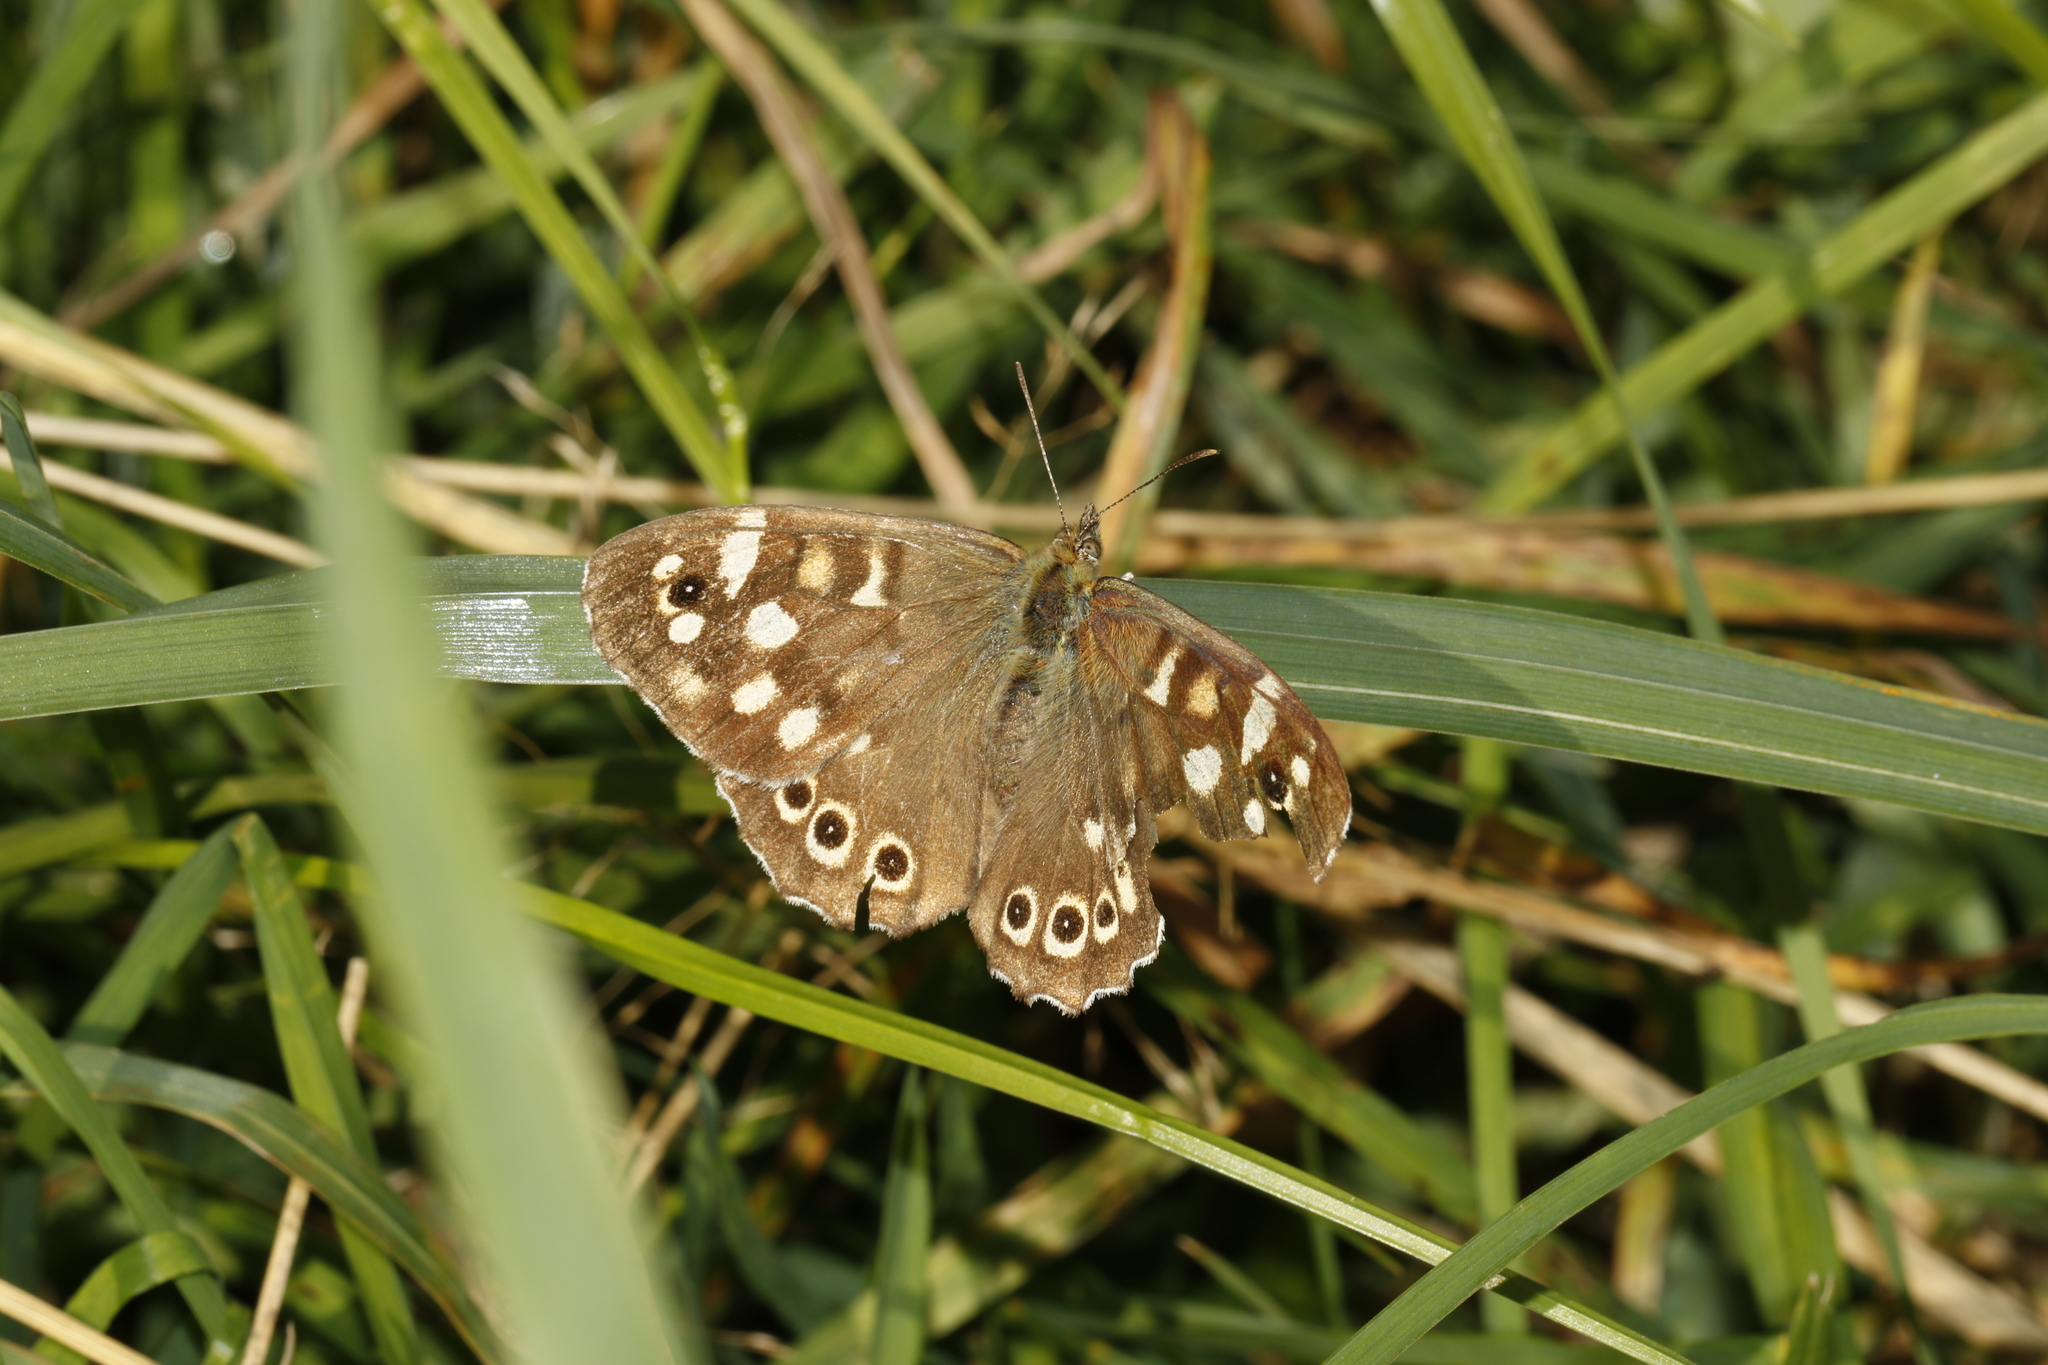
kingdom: Animalia
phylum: Arthropoda
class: Insecta
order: Lepidoptera
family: Nymphalidae
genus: Pararge
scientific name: Pararge aegeria
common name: Speckled wood
